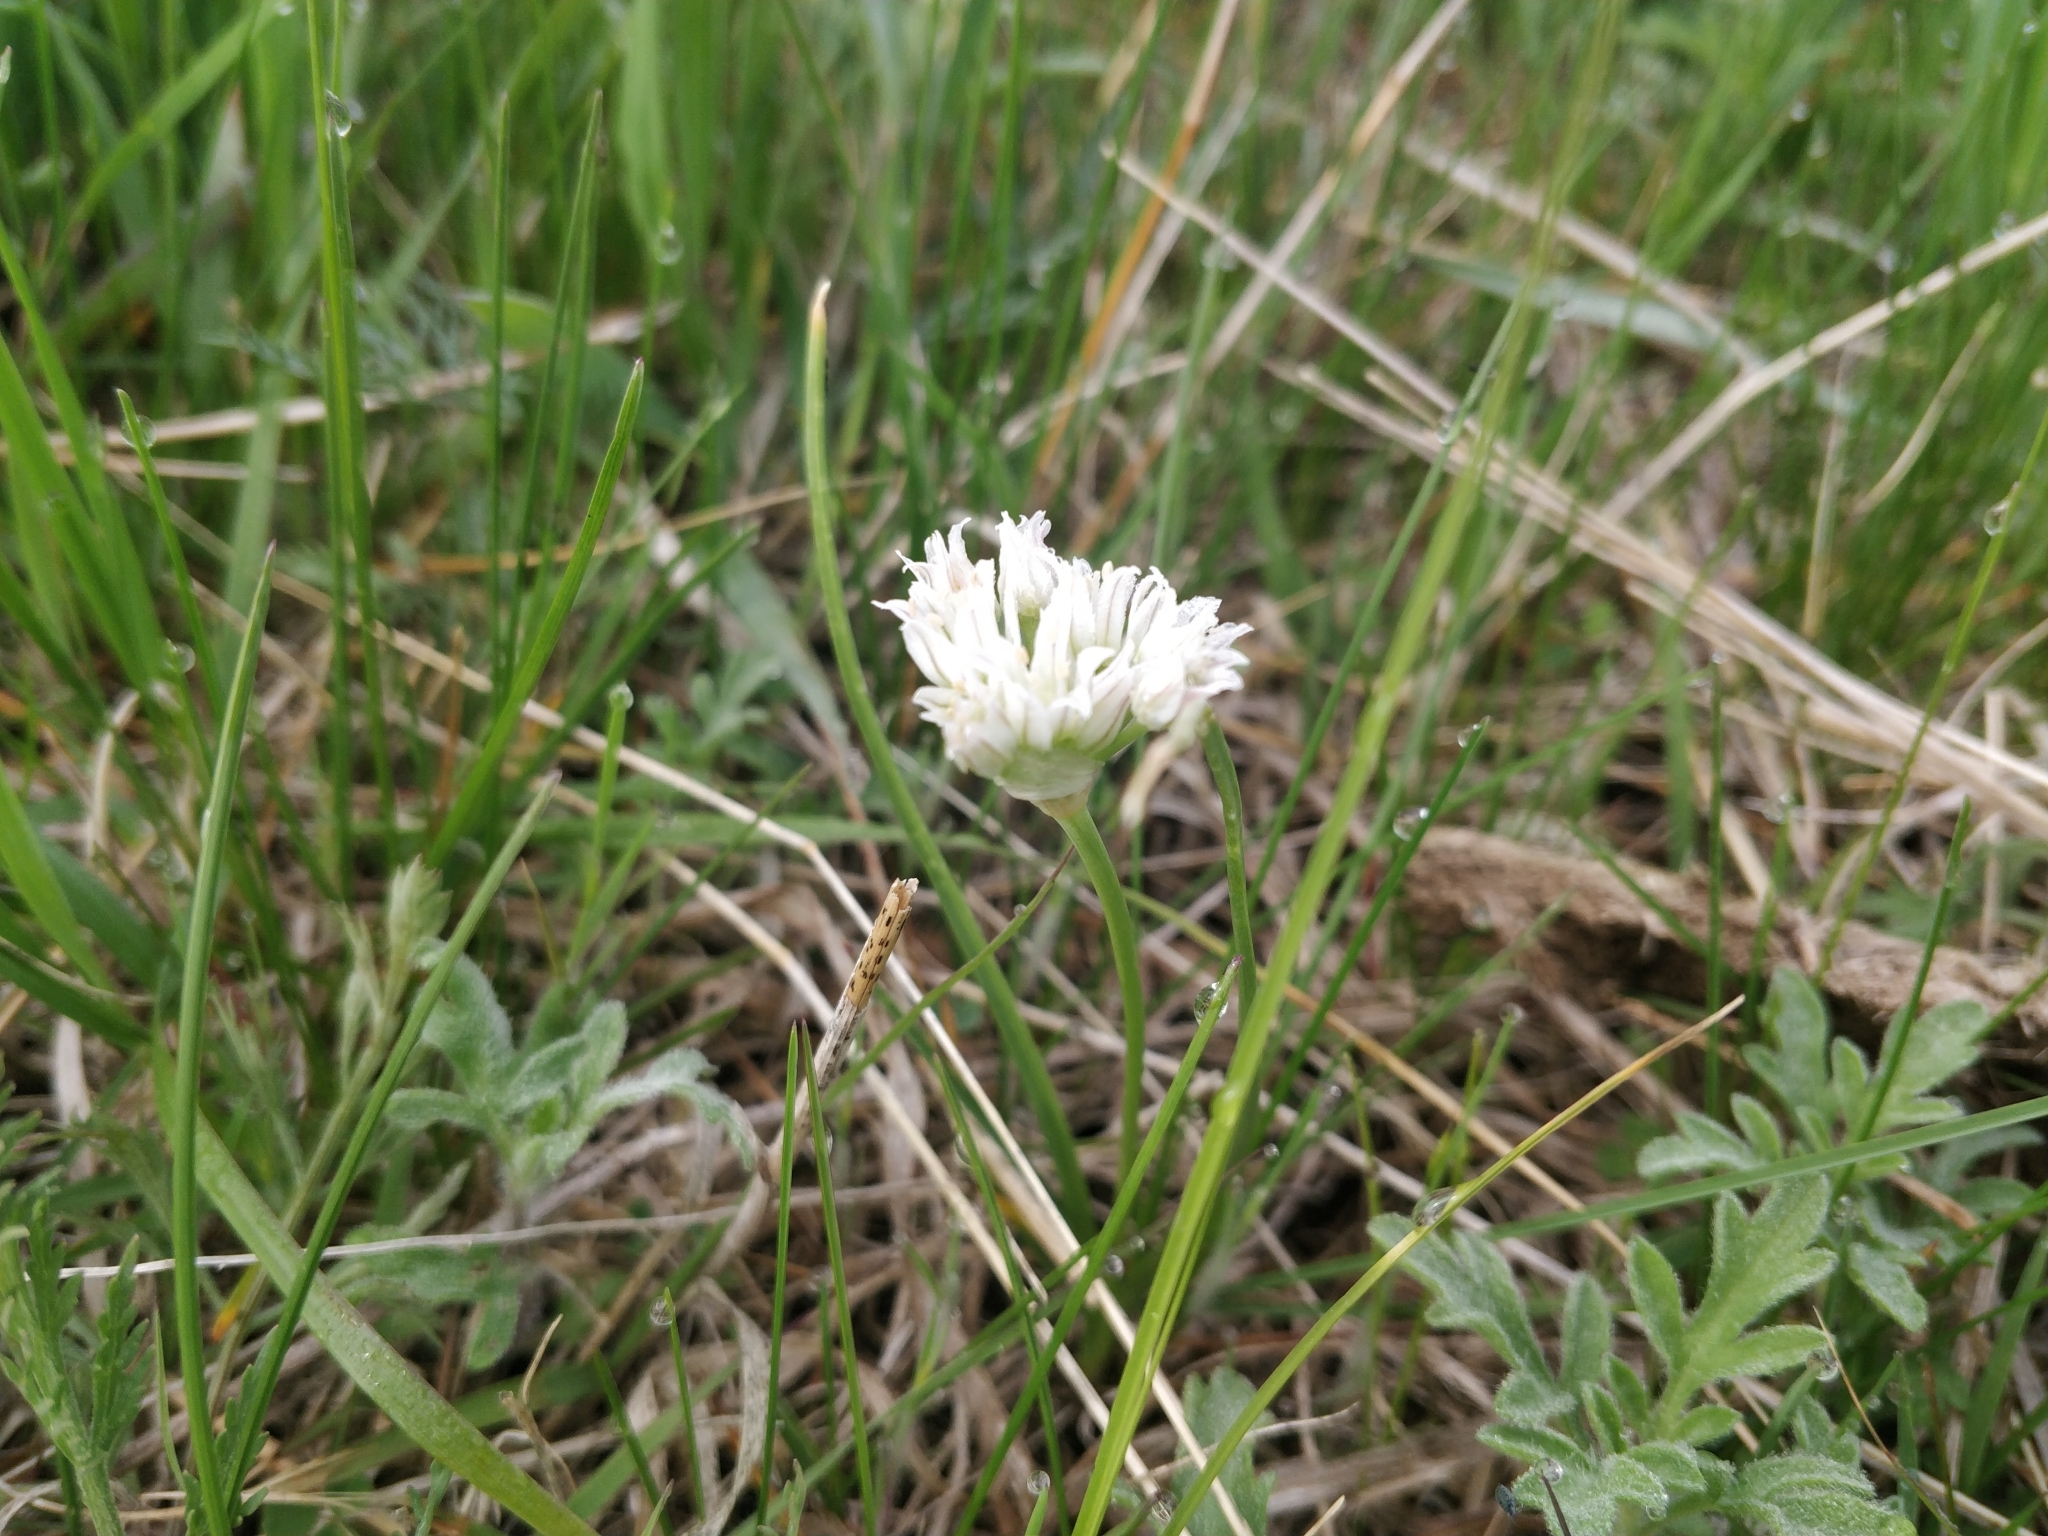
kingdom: Plantae
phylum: Tracheophyta
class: Liliopsida
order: Asparagales
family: Amaryllidaceae
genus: Allium
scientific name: Allium textile
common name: Prairie onion
